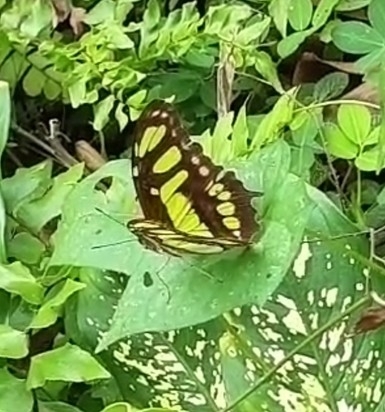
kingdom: Animalia
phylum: Arthropoda
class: Insecta
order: Lepidoptera
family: Nymphalidae
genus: Siproeta
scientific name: Siproeta stelenes
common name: Malachite
